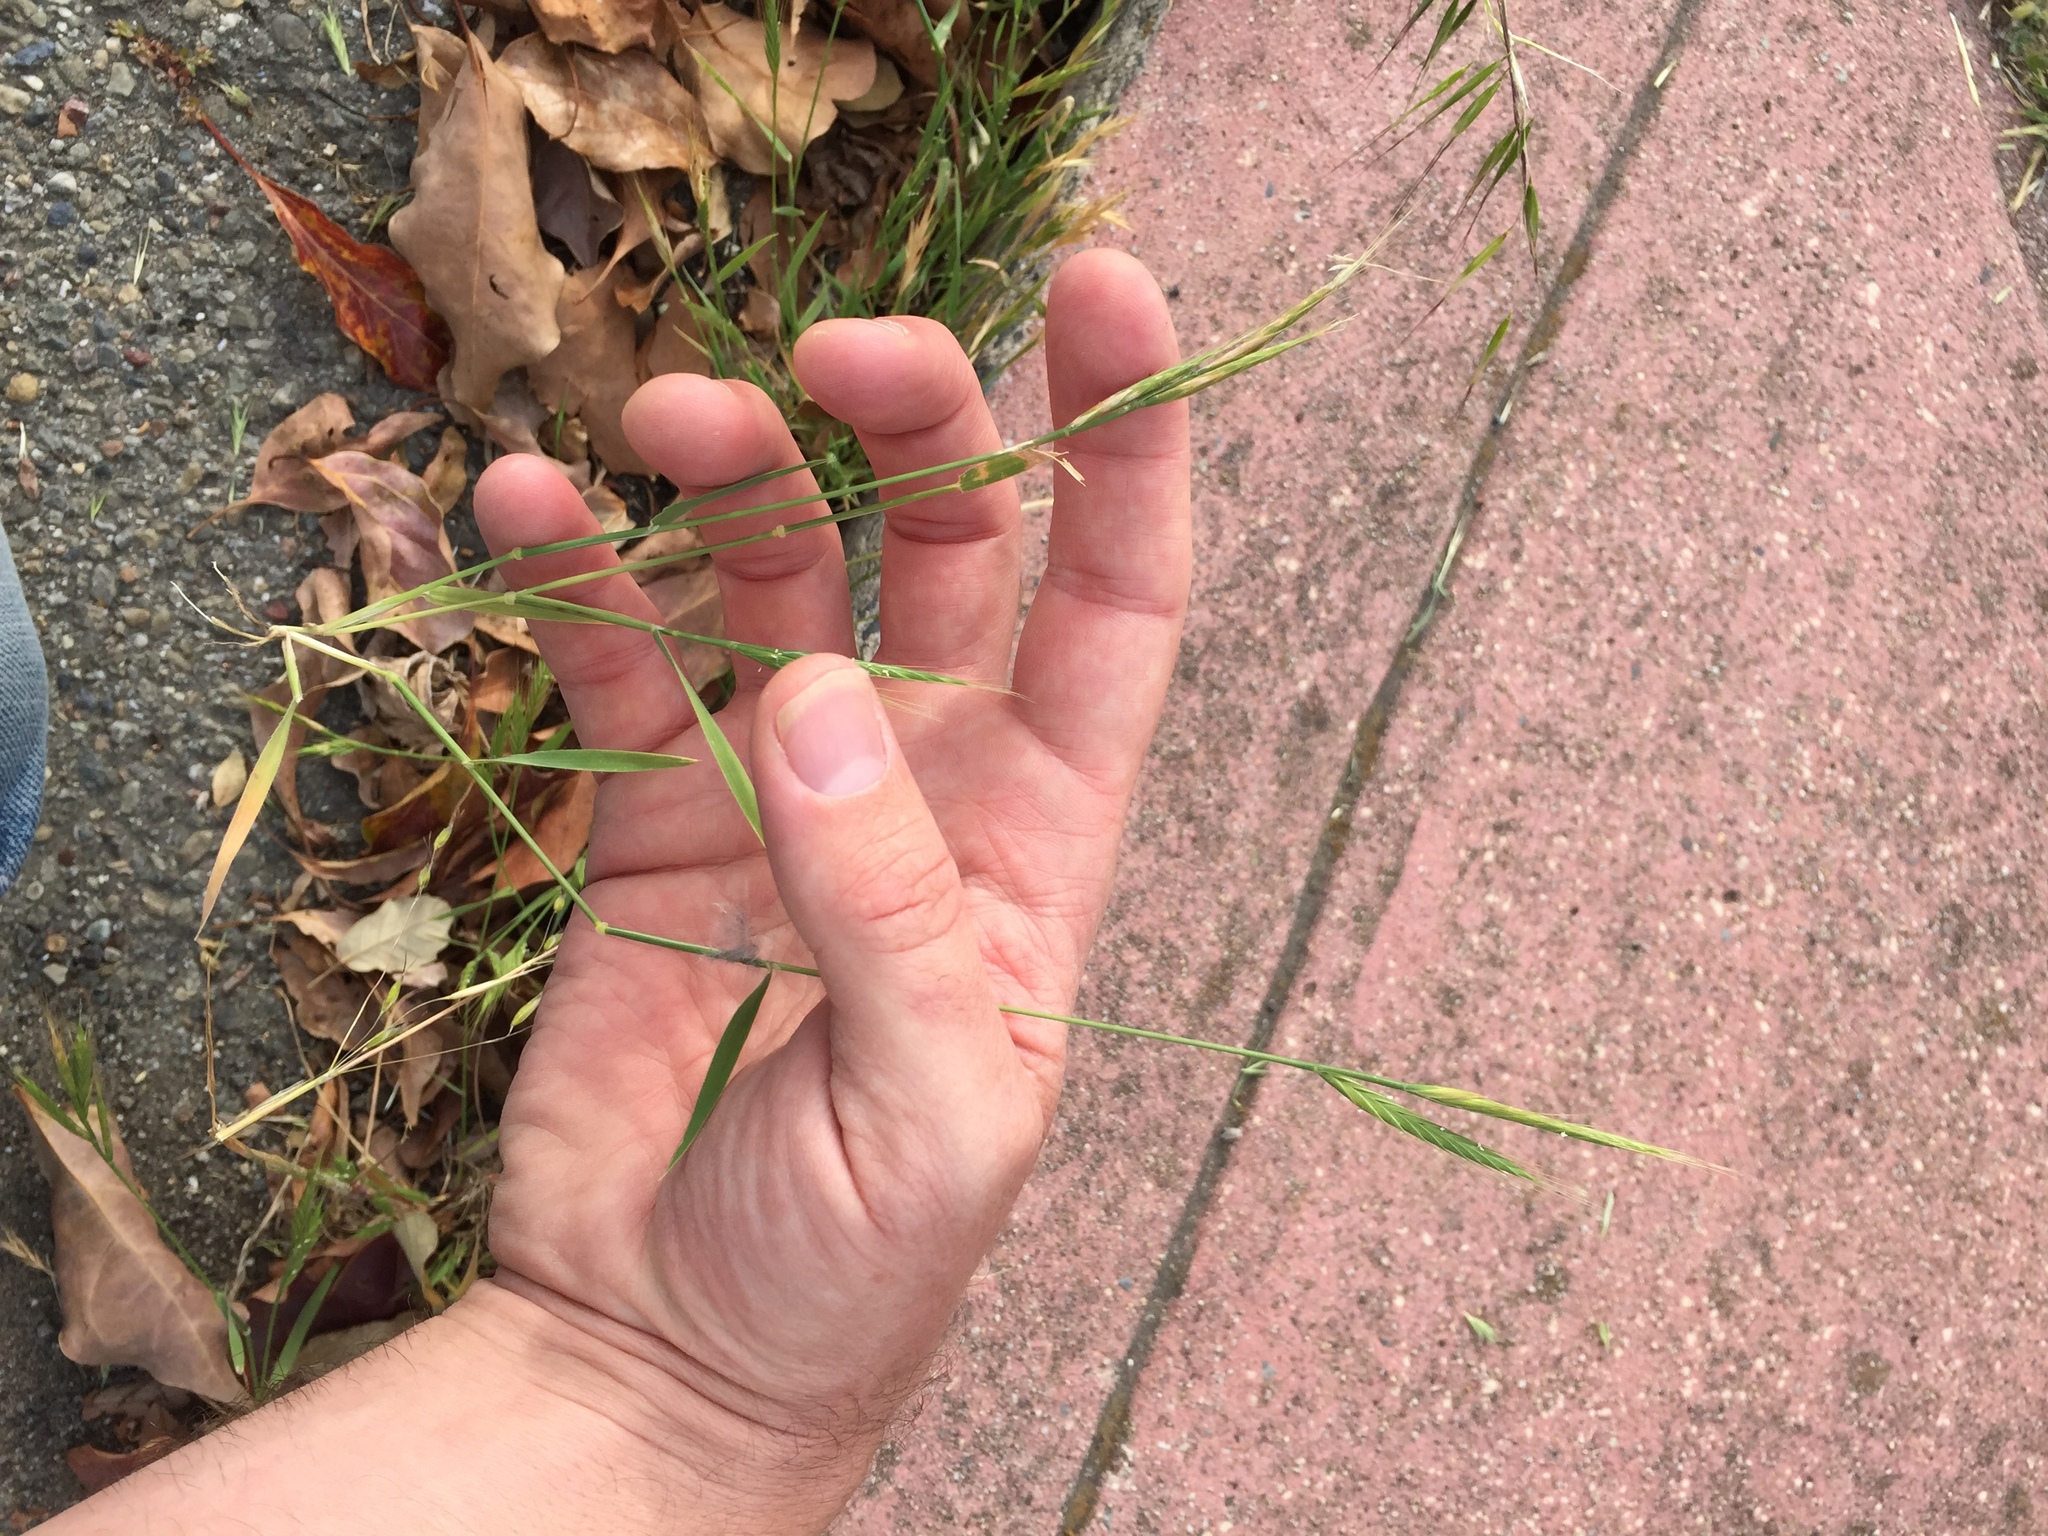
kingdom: Plantae
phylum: Tracheophyta
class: Liliopsida
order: Poales
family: Poaceae
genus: Brachypodium
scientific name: Brachypodium distachyon
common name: Stiff brome
